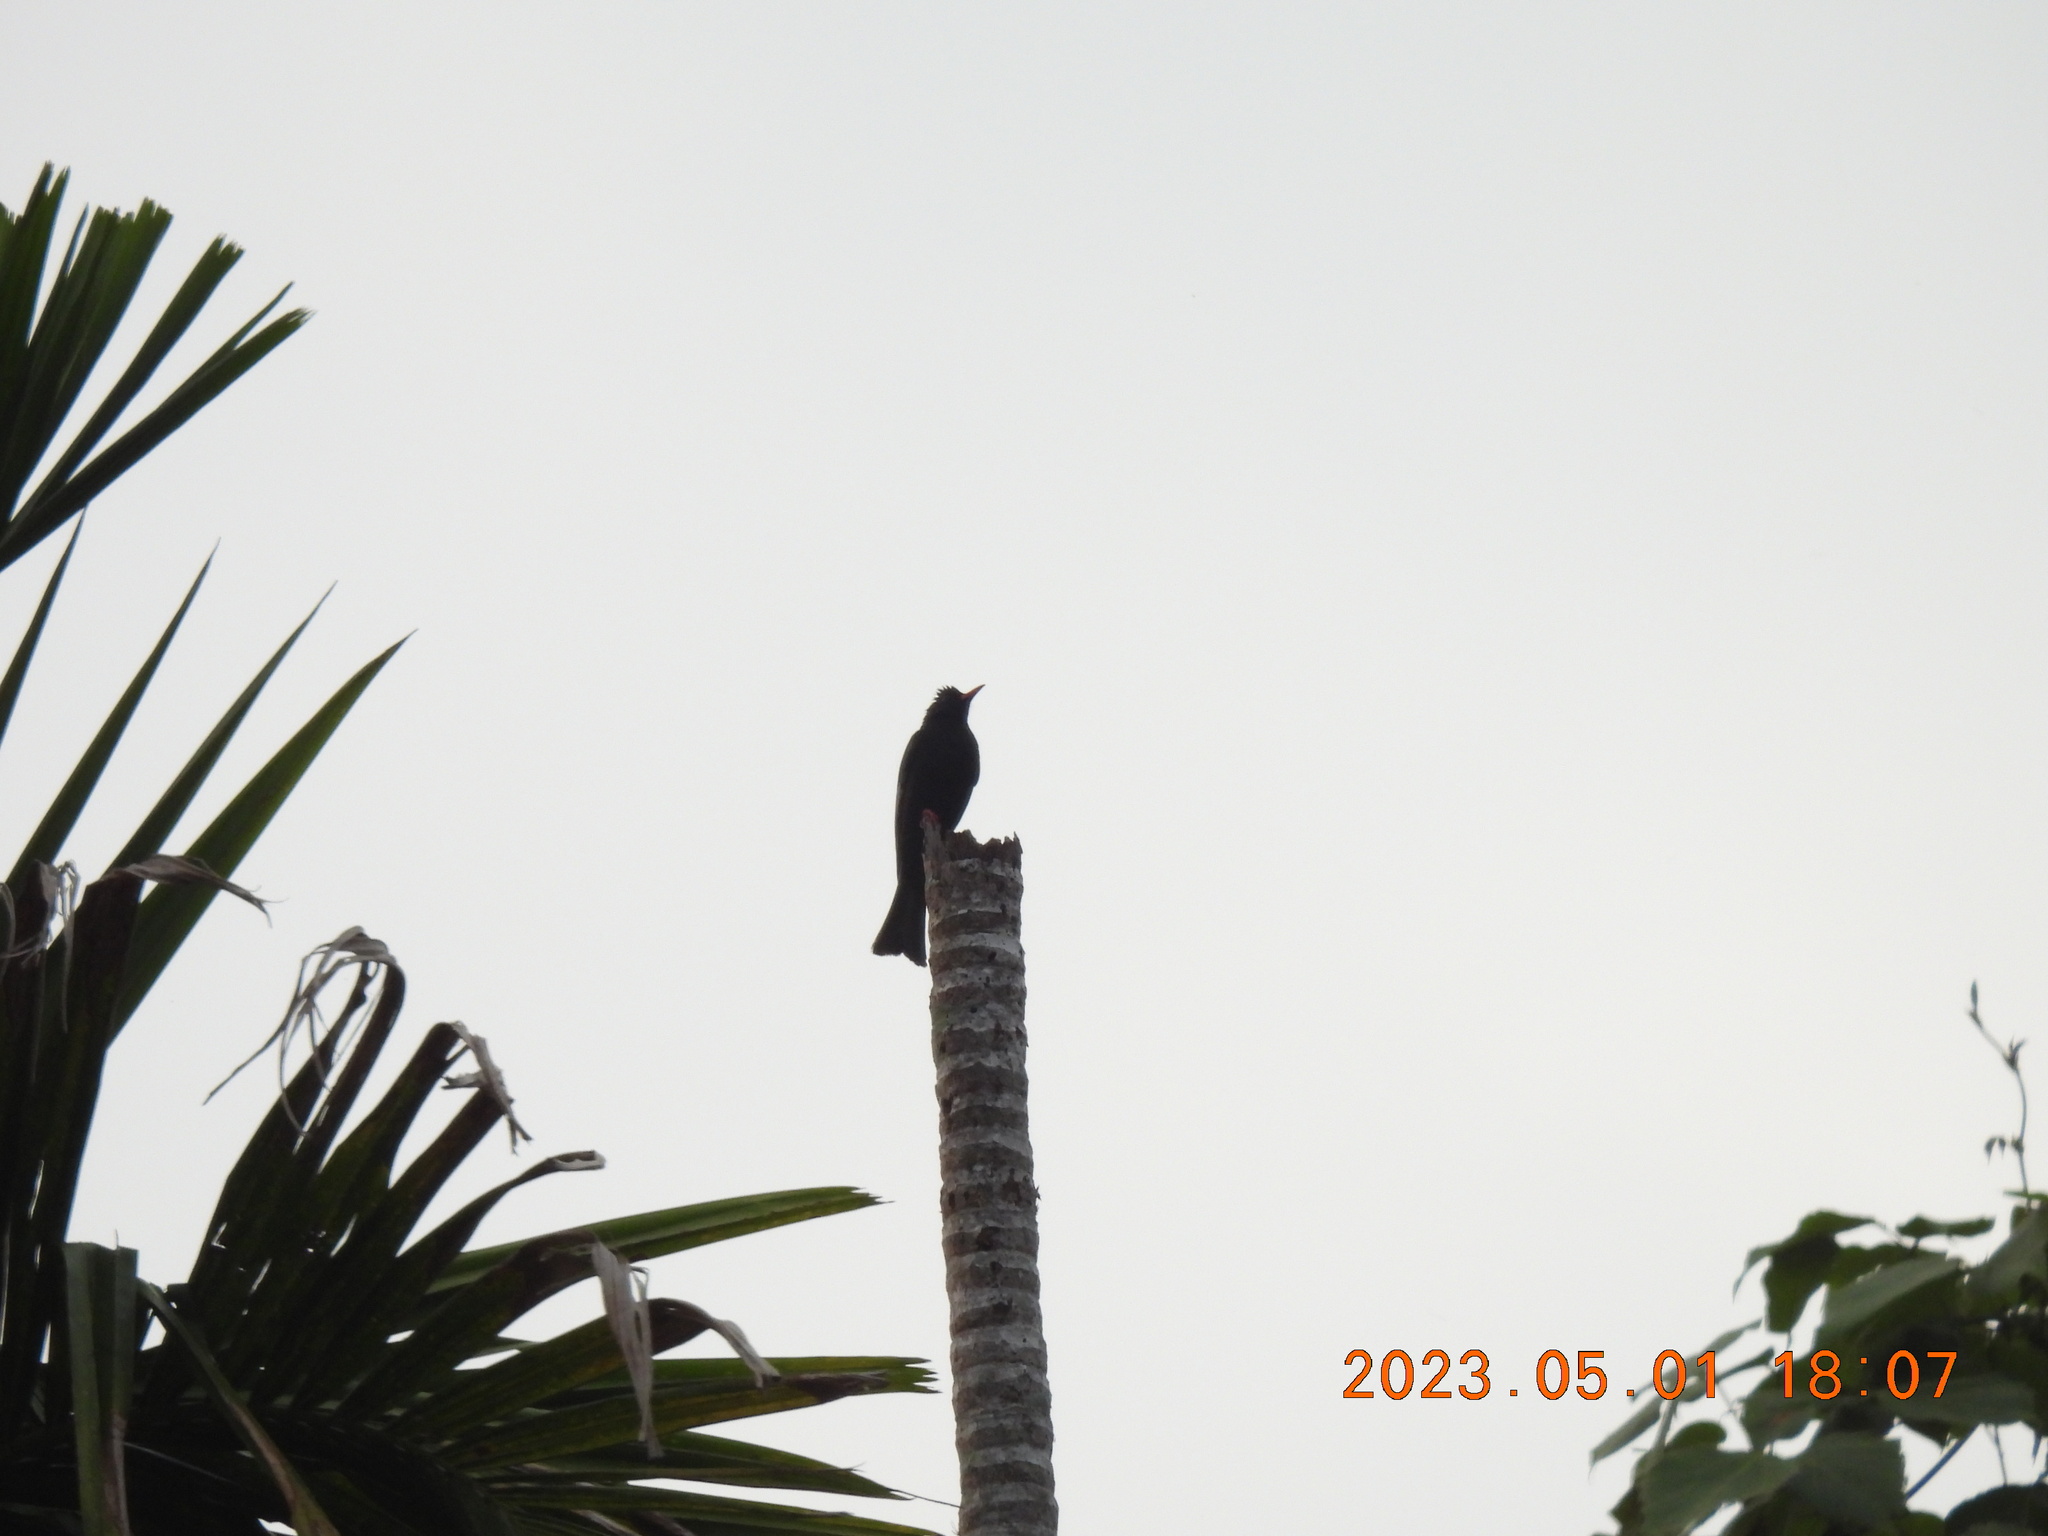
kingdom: Animalia
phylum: Chordata
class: Aves
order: Passeriformes
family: Pycnonotidae
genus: Hypsipetes
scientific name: Hypsipetes leucocephalus
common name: Black bulbul
